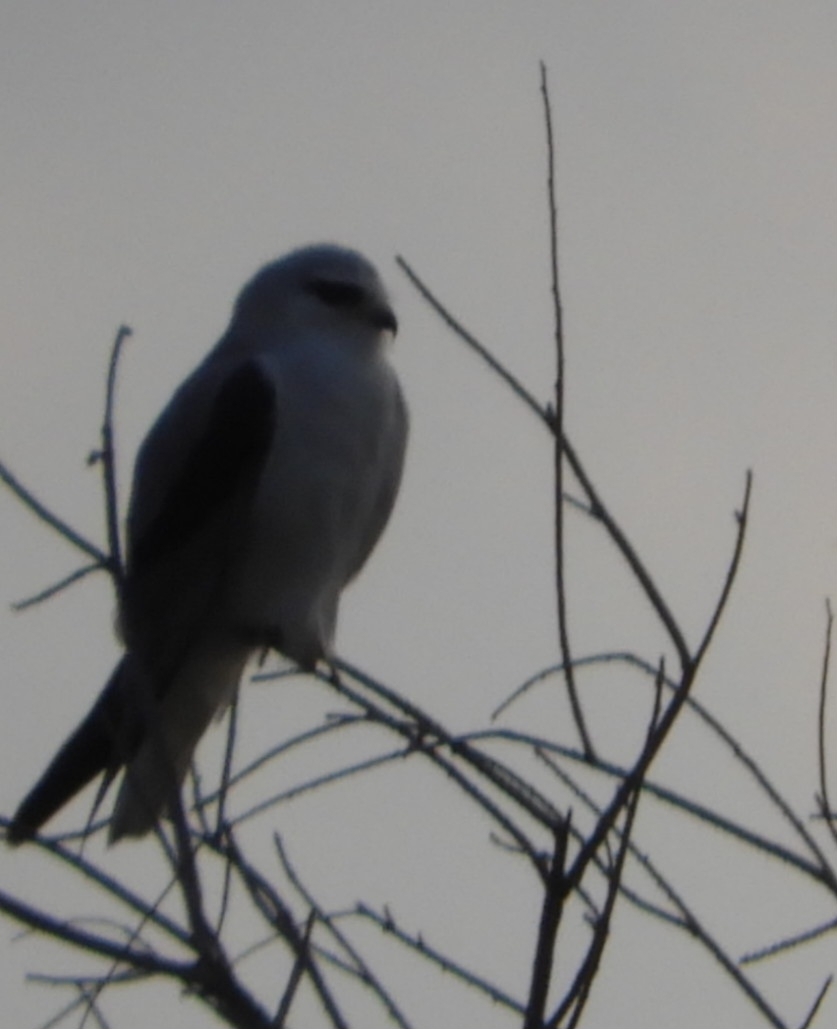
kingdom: Animalia
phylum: Chordata
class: Aves
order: Accipitriformes
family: Accipitridae
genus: Elanus
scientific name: Elanus caeruleus
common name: Black-winged kite
